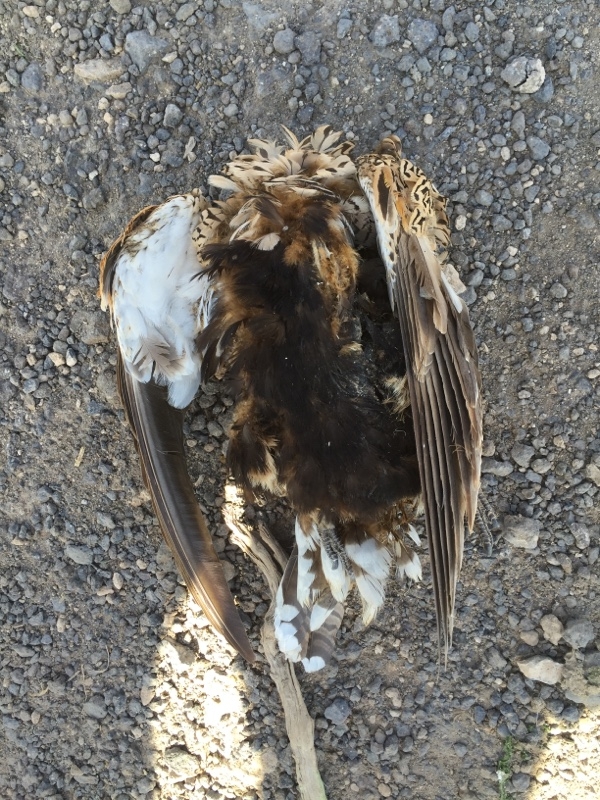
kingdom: Animalia
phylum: Chordata
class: Aves
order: Pteroclidiformes
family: Pteroclididae
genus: Pterocles
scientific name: Pterocles orientalis
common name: Black-bellied sandgrouse
